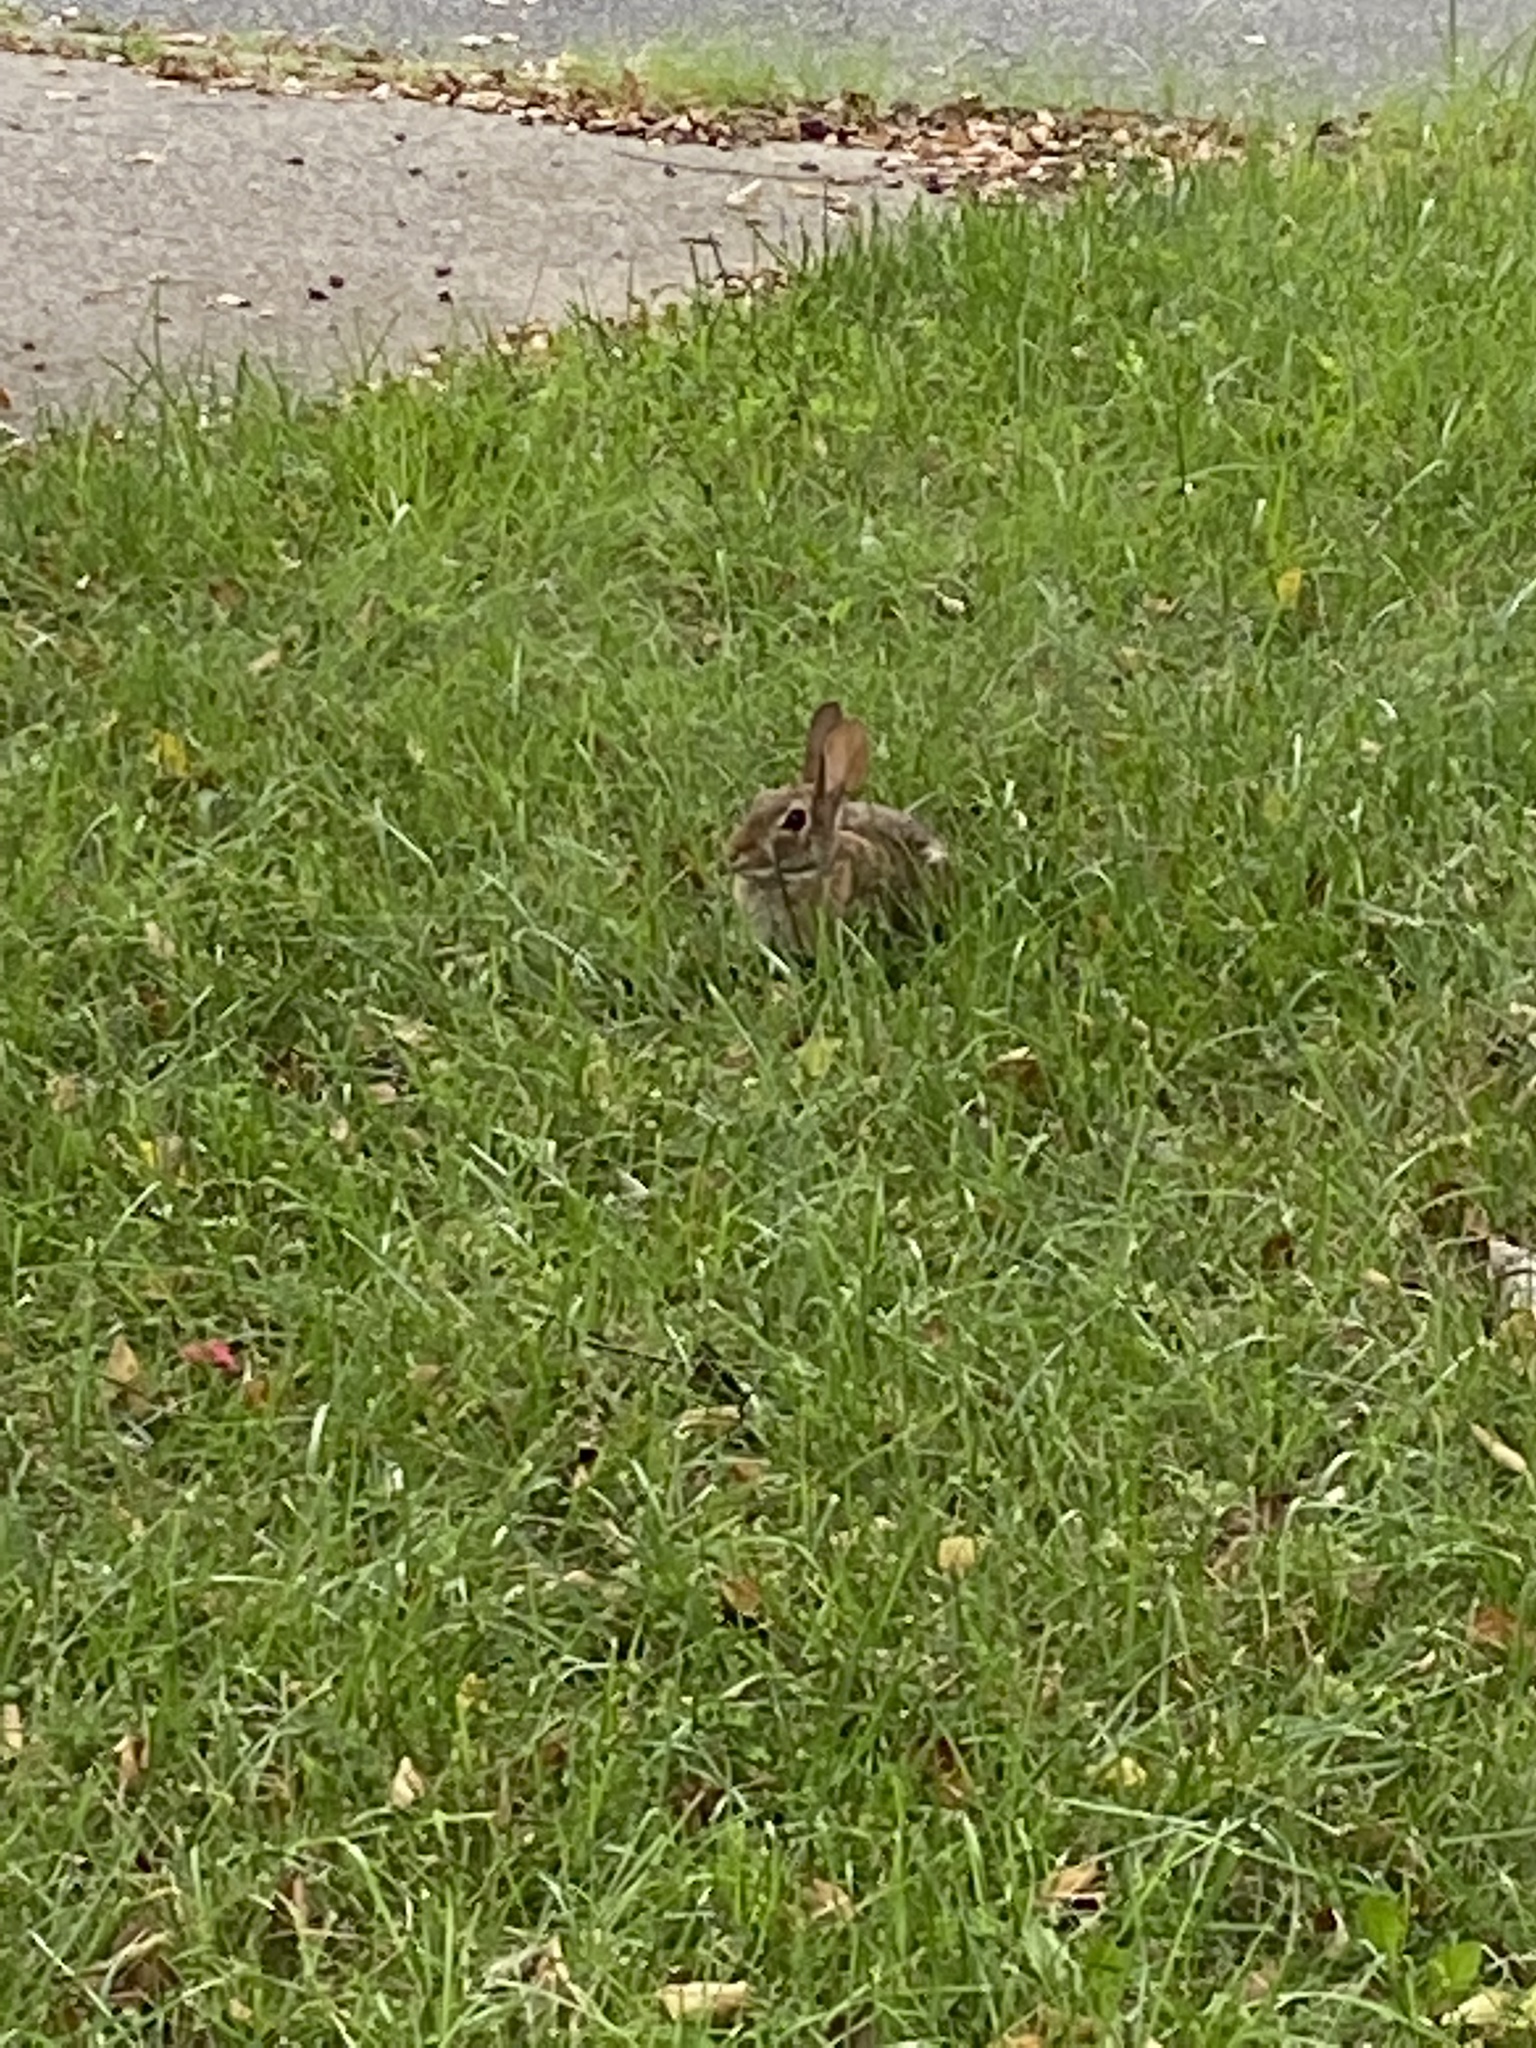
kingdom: Animalia
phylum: Chordata
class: Mammalia
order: Lagomorpha
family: Leporidae
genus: Sylvilagus
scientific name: Sylvilagus floridanus
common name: Eastern cottontail
